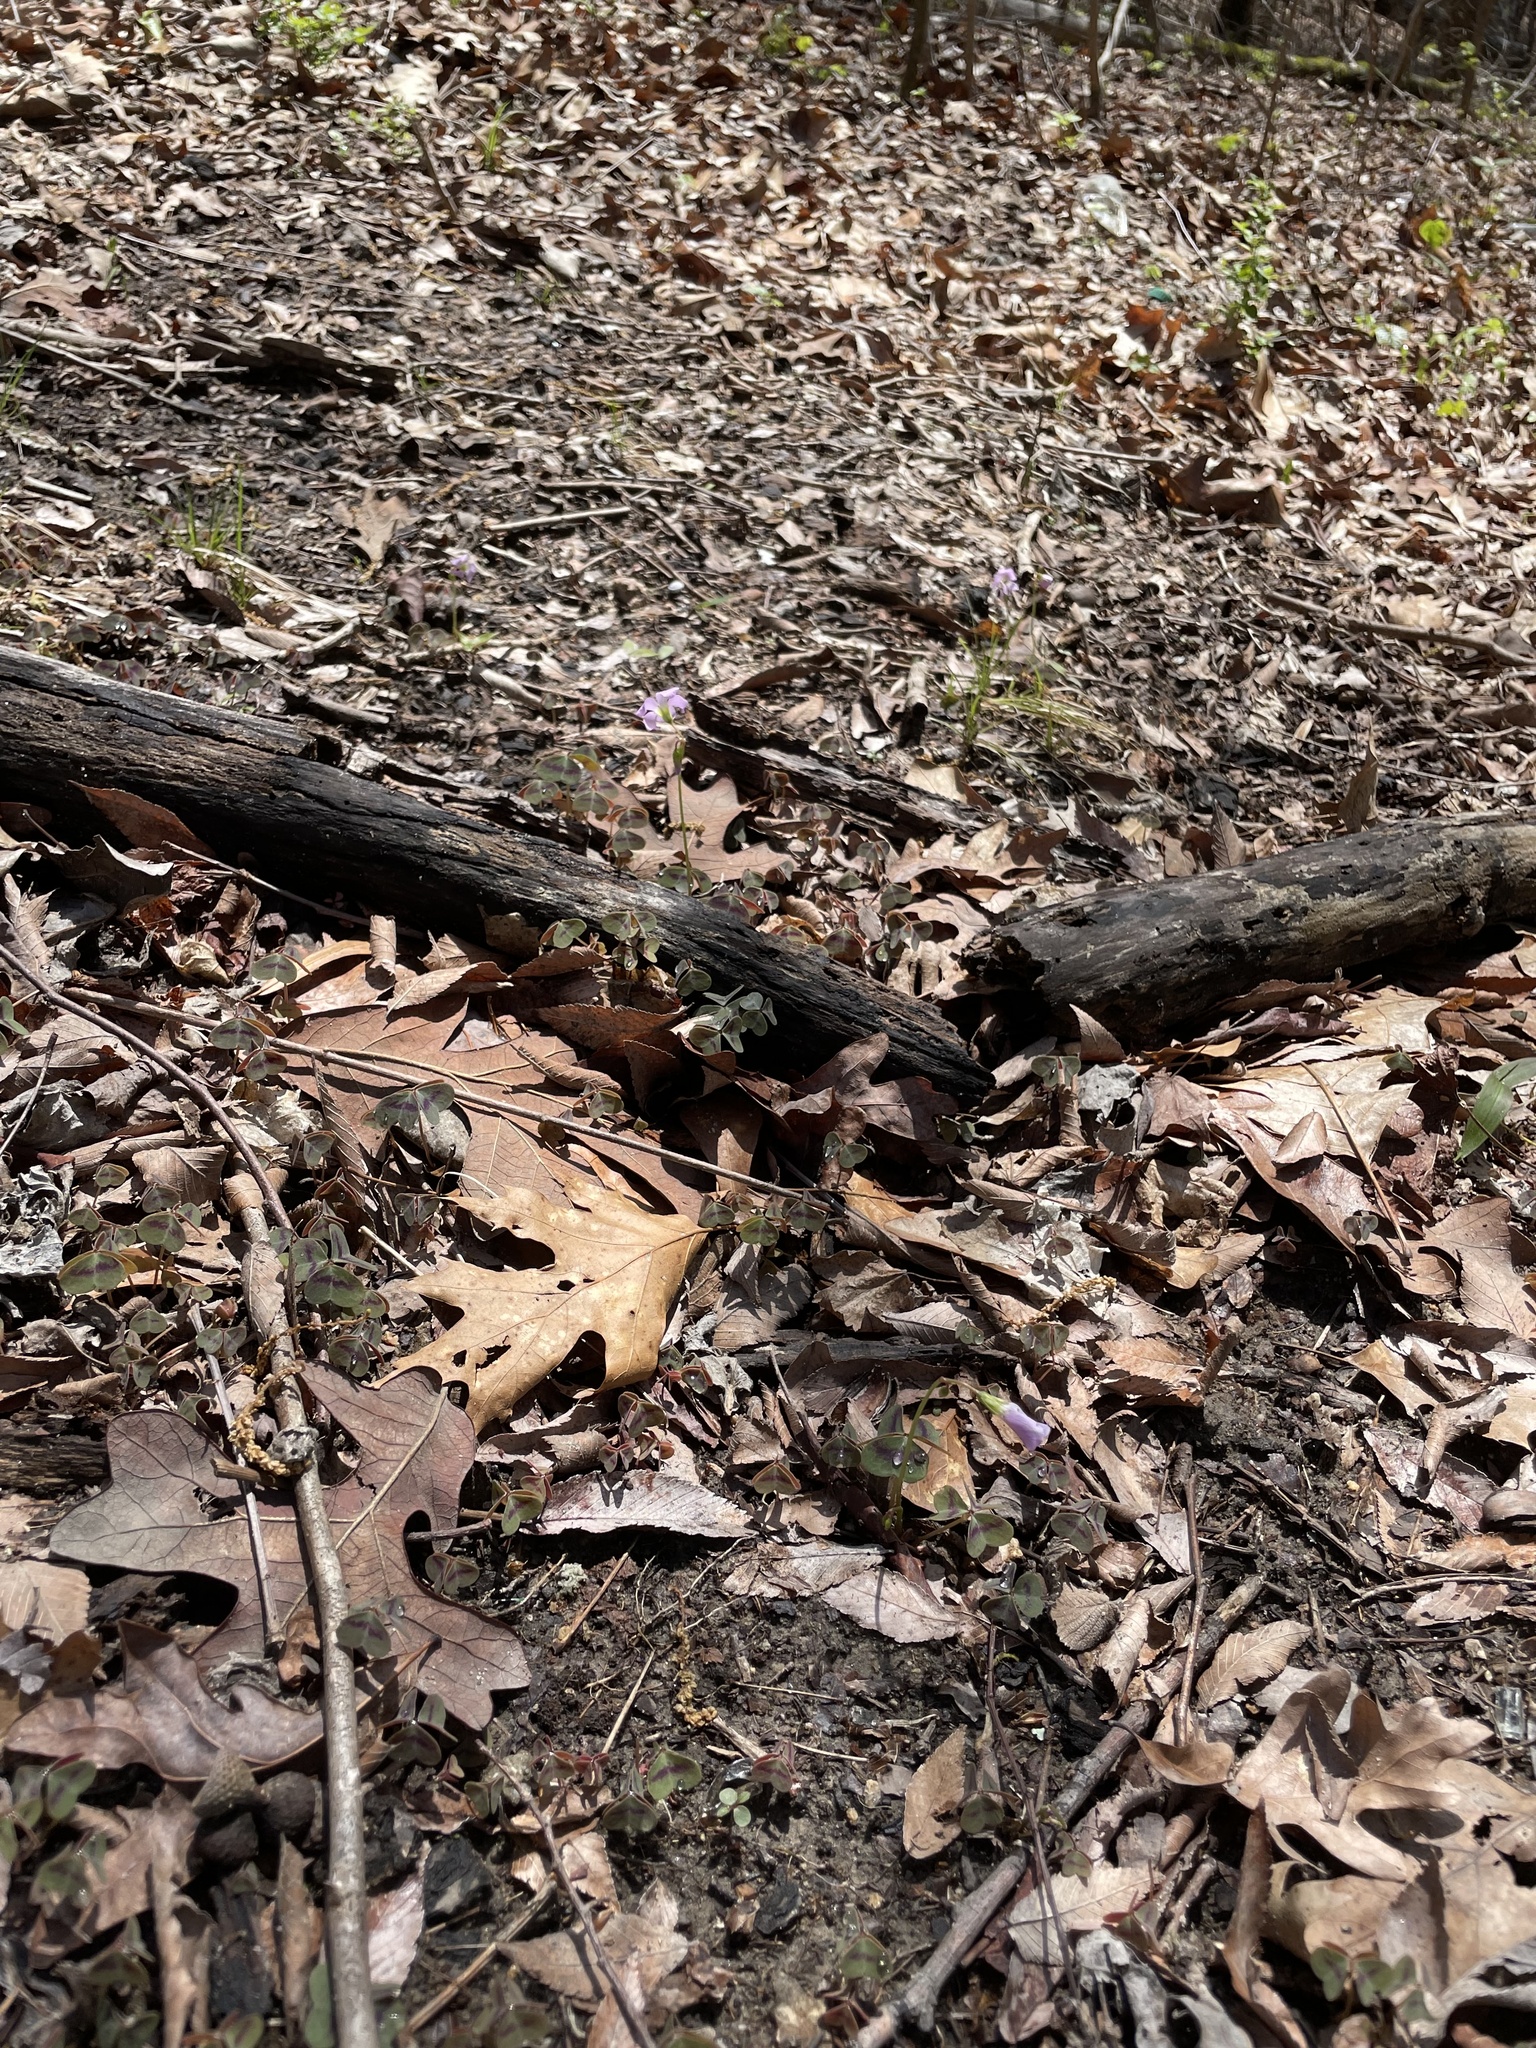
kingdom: Plantae
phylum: Tracheophyta
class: Magnoliopsida
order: Oxalidales
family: Oxalidaceae
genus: Oxalis
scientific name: Oxalis violacea
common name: Violet wood-sorrel
